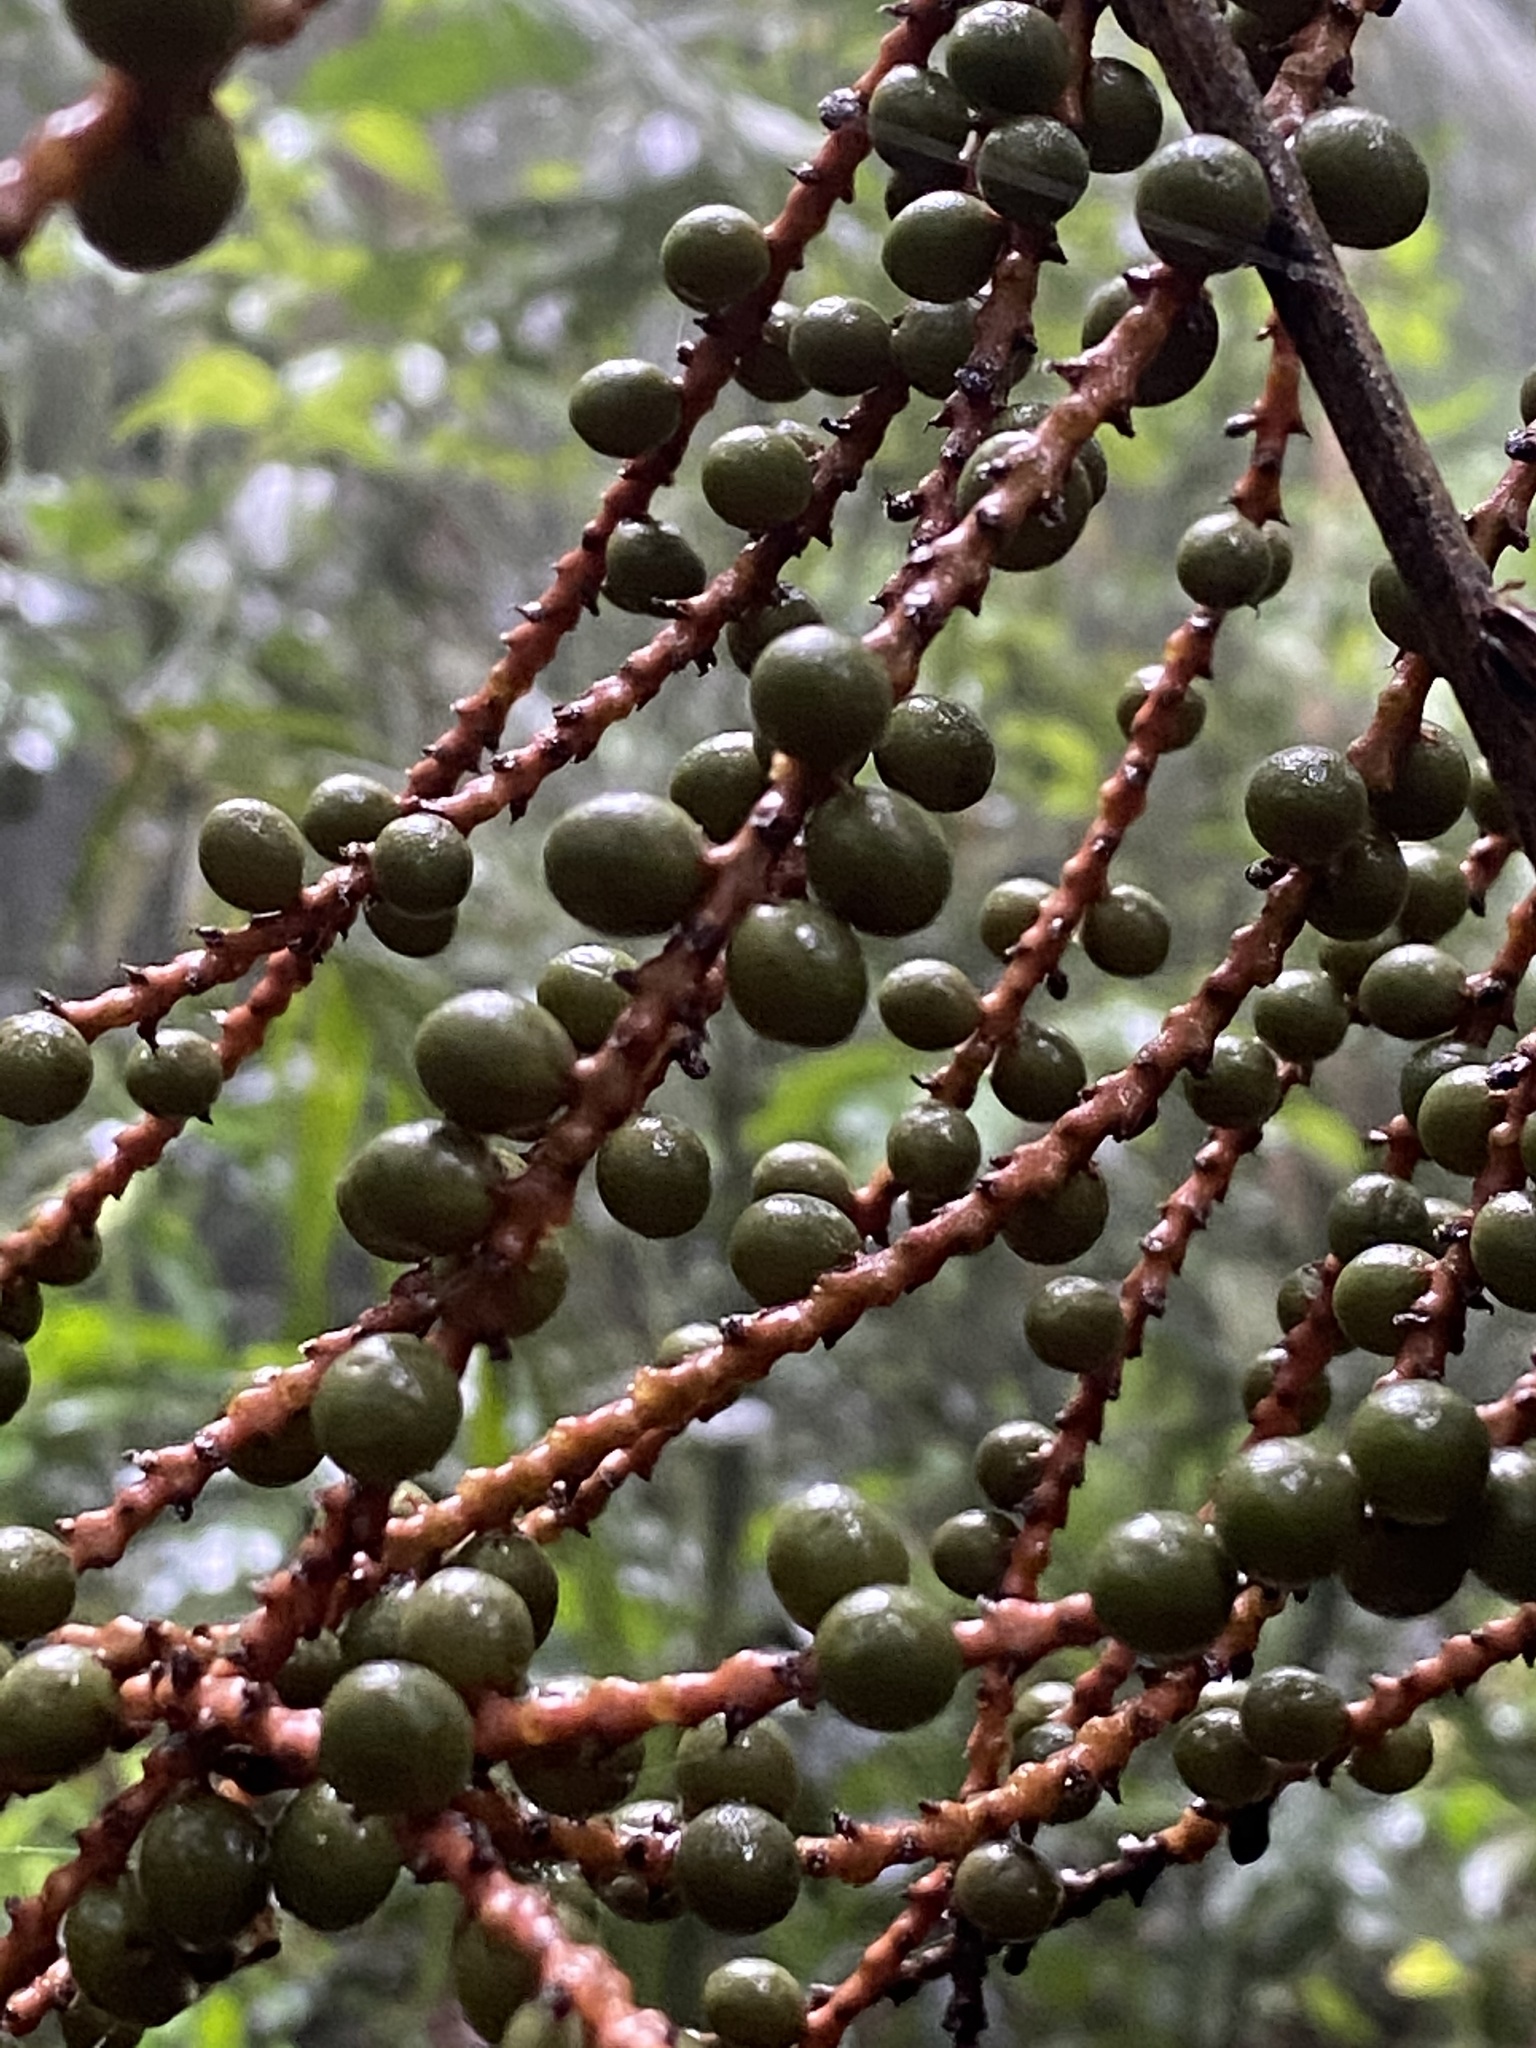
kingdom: Plantae
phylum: Tracheophyta
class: Liliopsida
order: Arecales
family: Arecaceae
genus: Geonoma
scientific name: Geonoma schottiana
